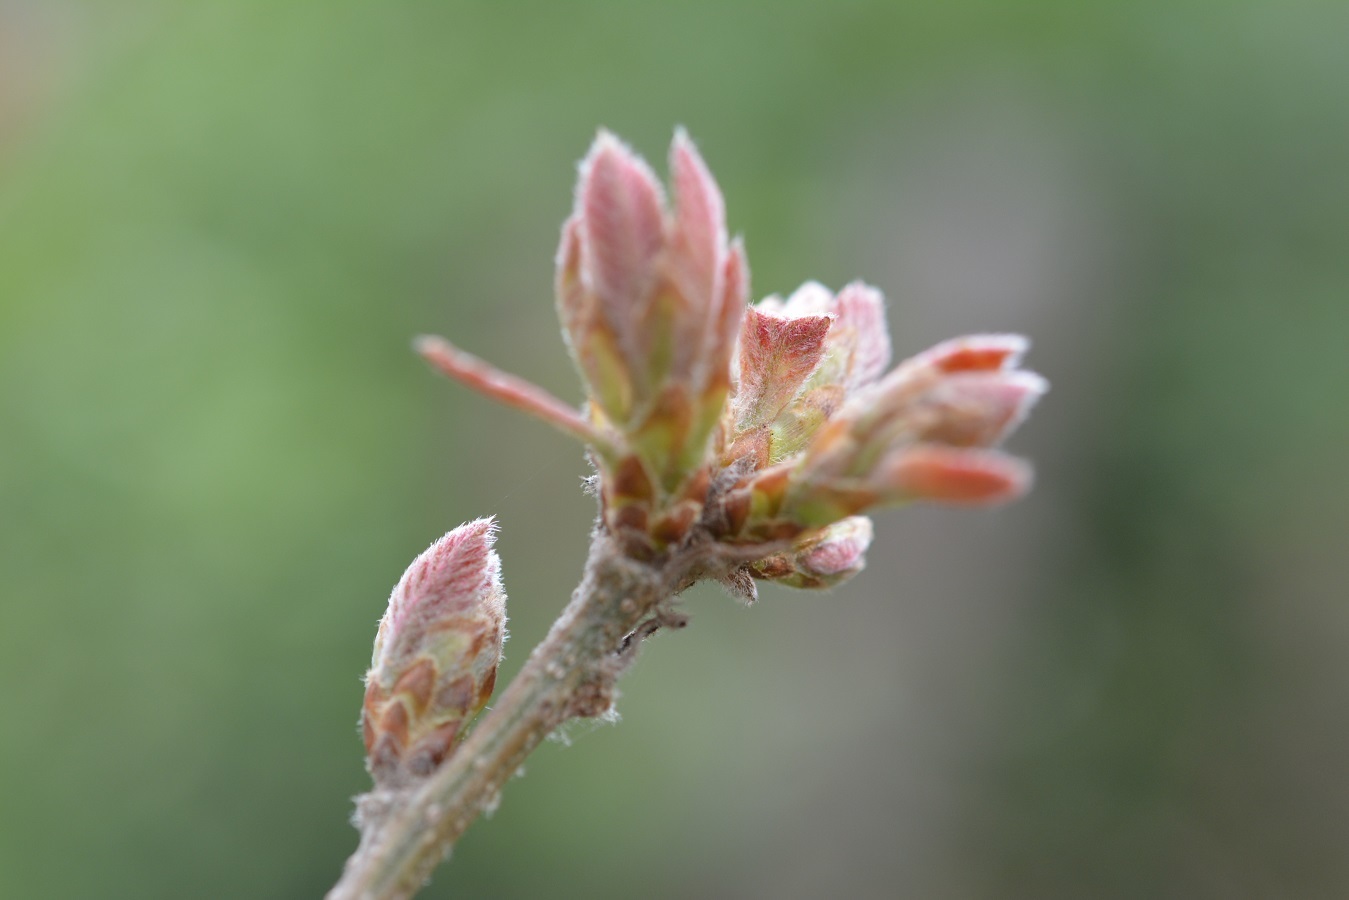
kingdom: Plantae
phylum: Tracheophyta
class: Magnoliopsida
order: Fagales
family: Fagaceae
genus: Quercus
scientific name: Quercus crispipilis
